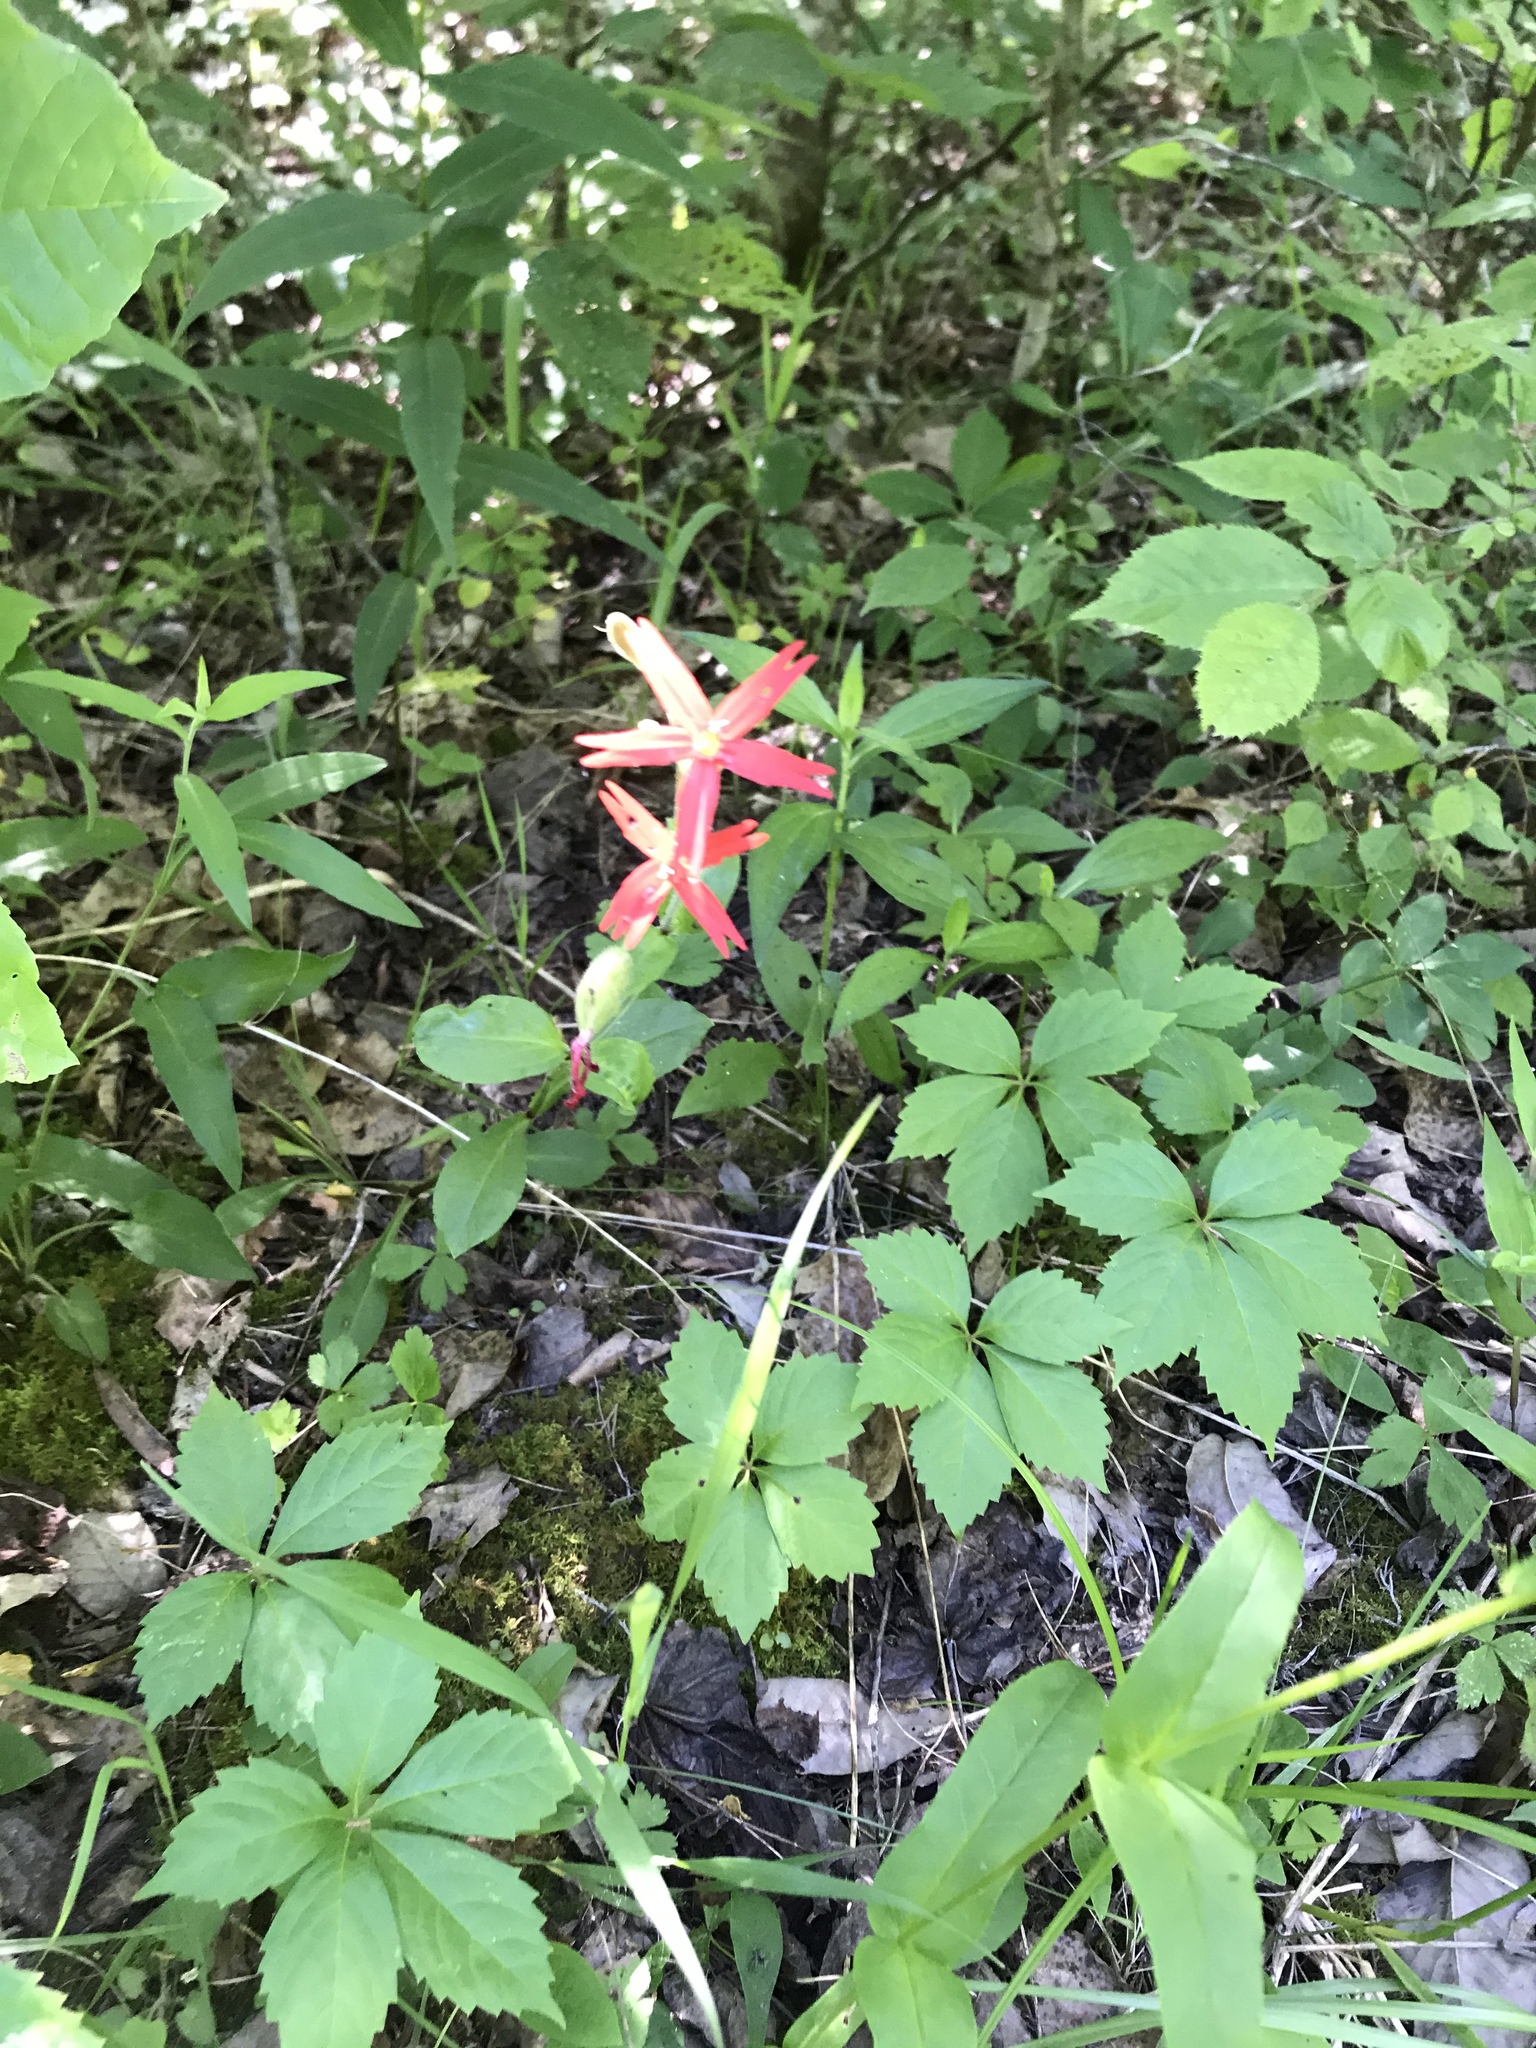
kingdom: Plantae
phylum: Tracheophyta
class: Magnoliopsida
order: Caryophyllales
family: Caryophyllaceae
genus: Silene
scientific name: Silene virginica
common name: Fire-pink
